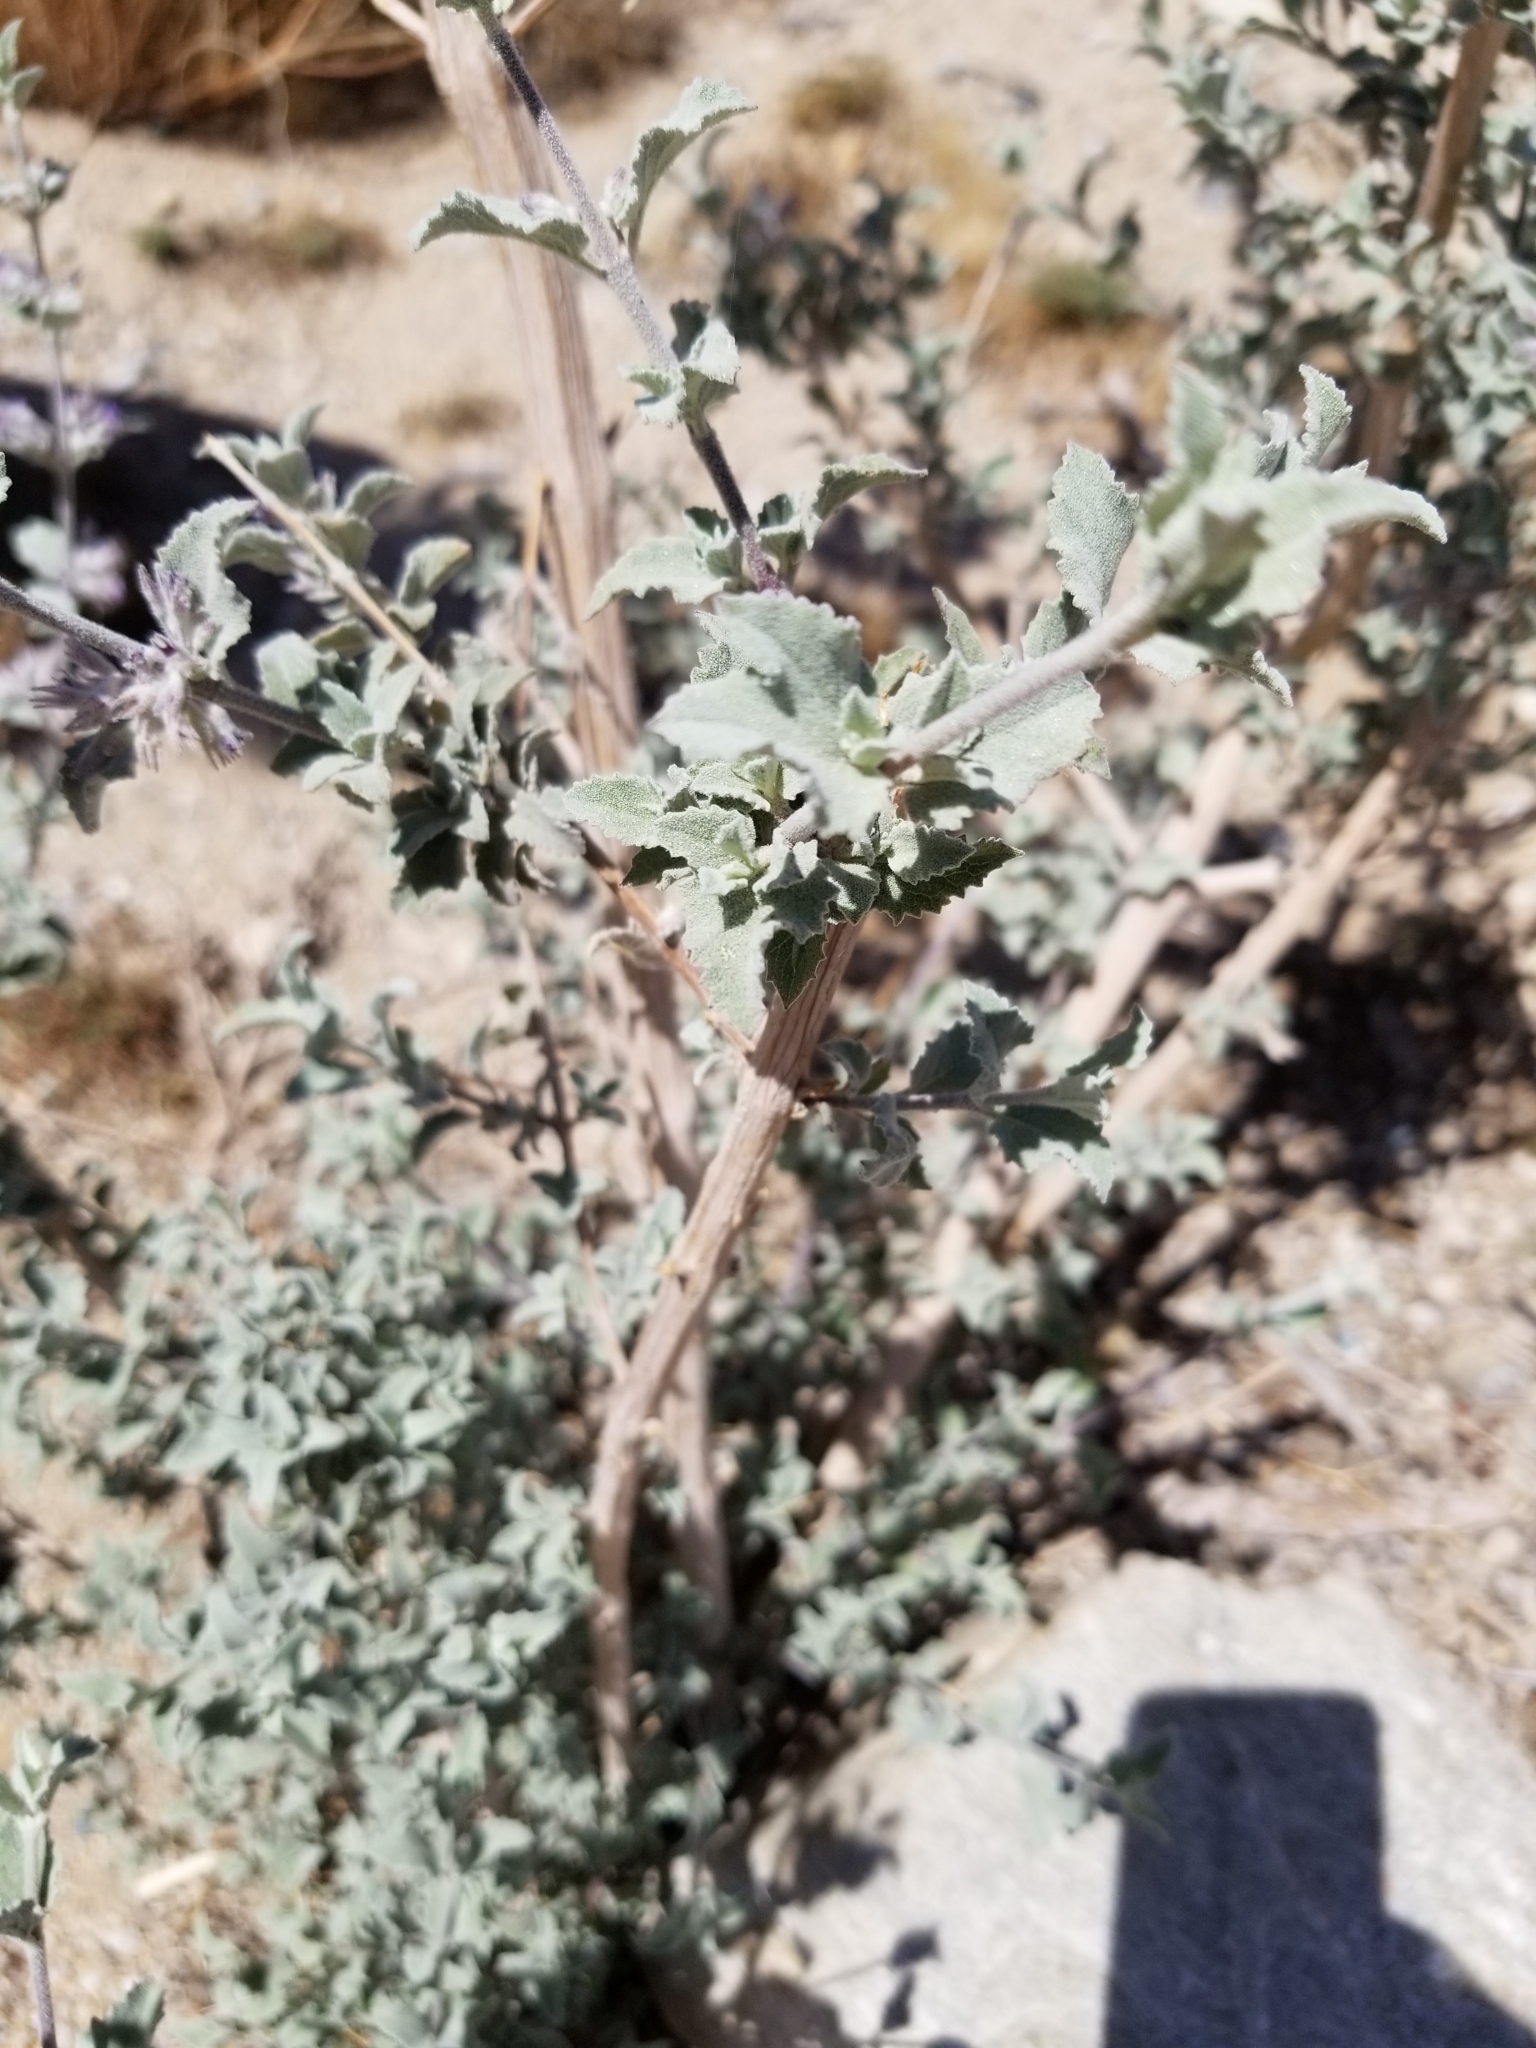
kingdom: Plantae
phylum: Tracheophyta
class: Magnoliopsida
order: Lamiales
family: Lamiaceae
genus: Condea
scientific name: Condea emoryi
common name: Chia
